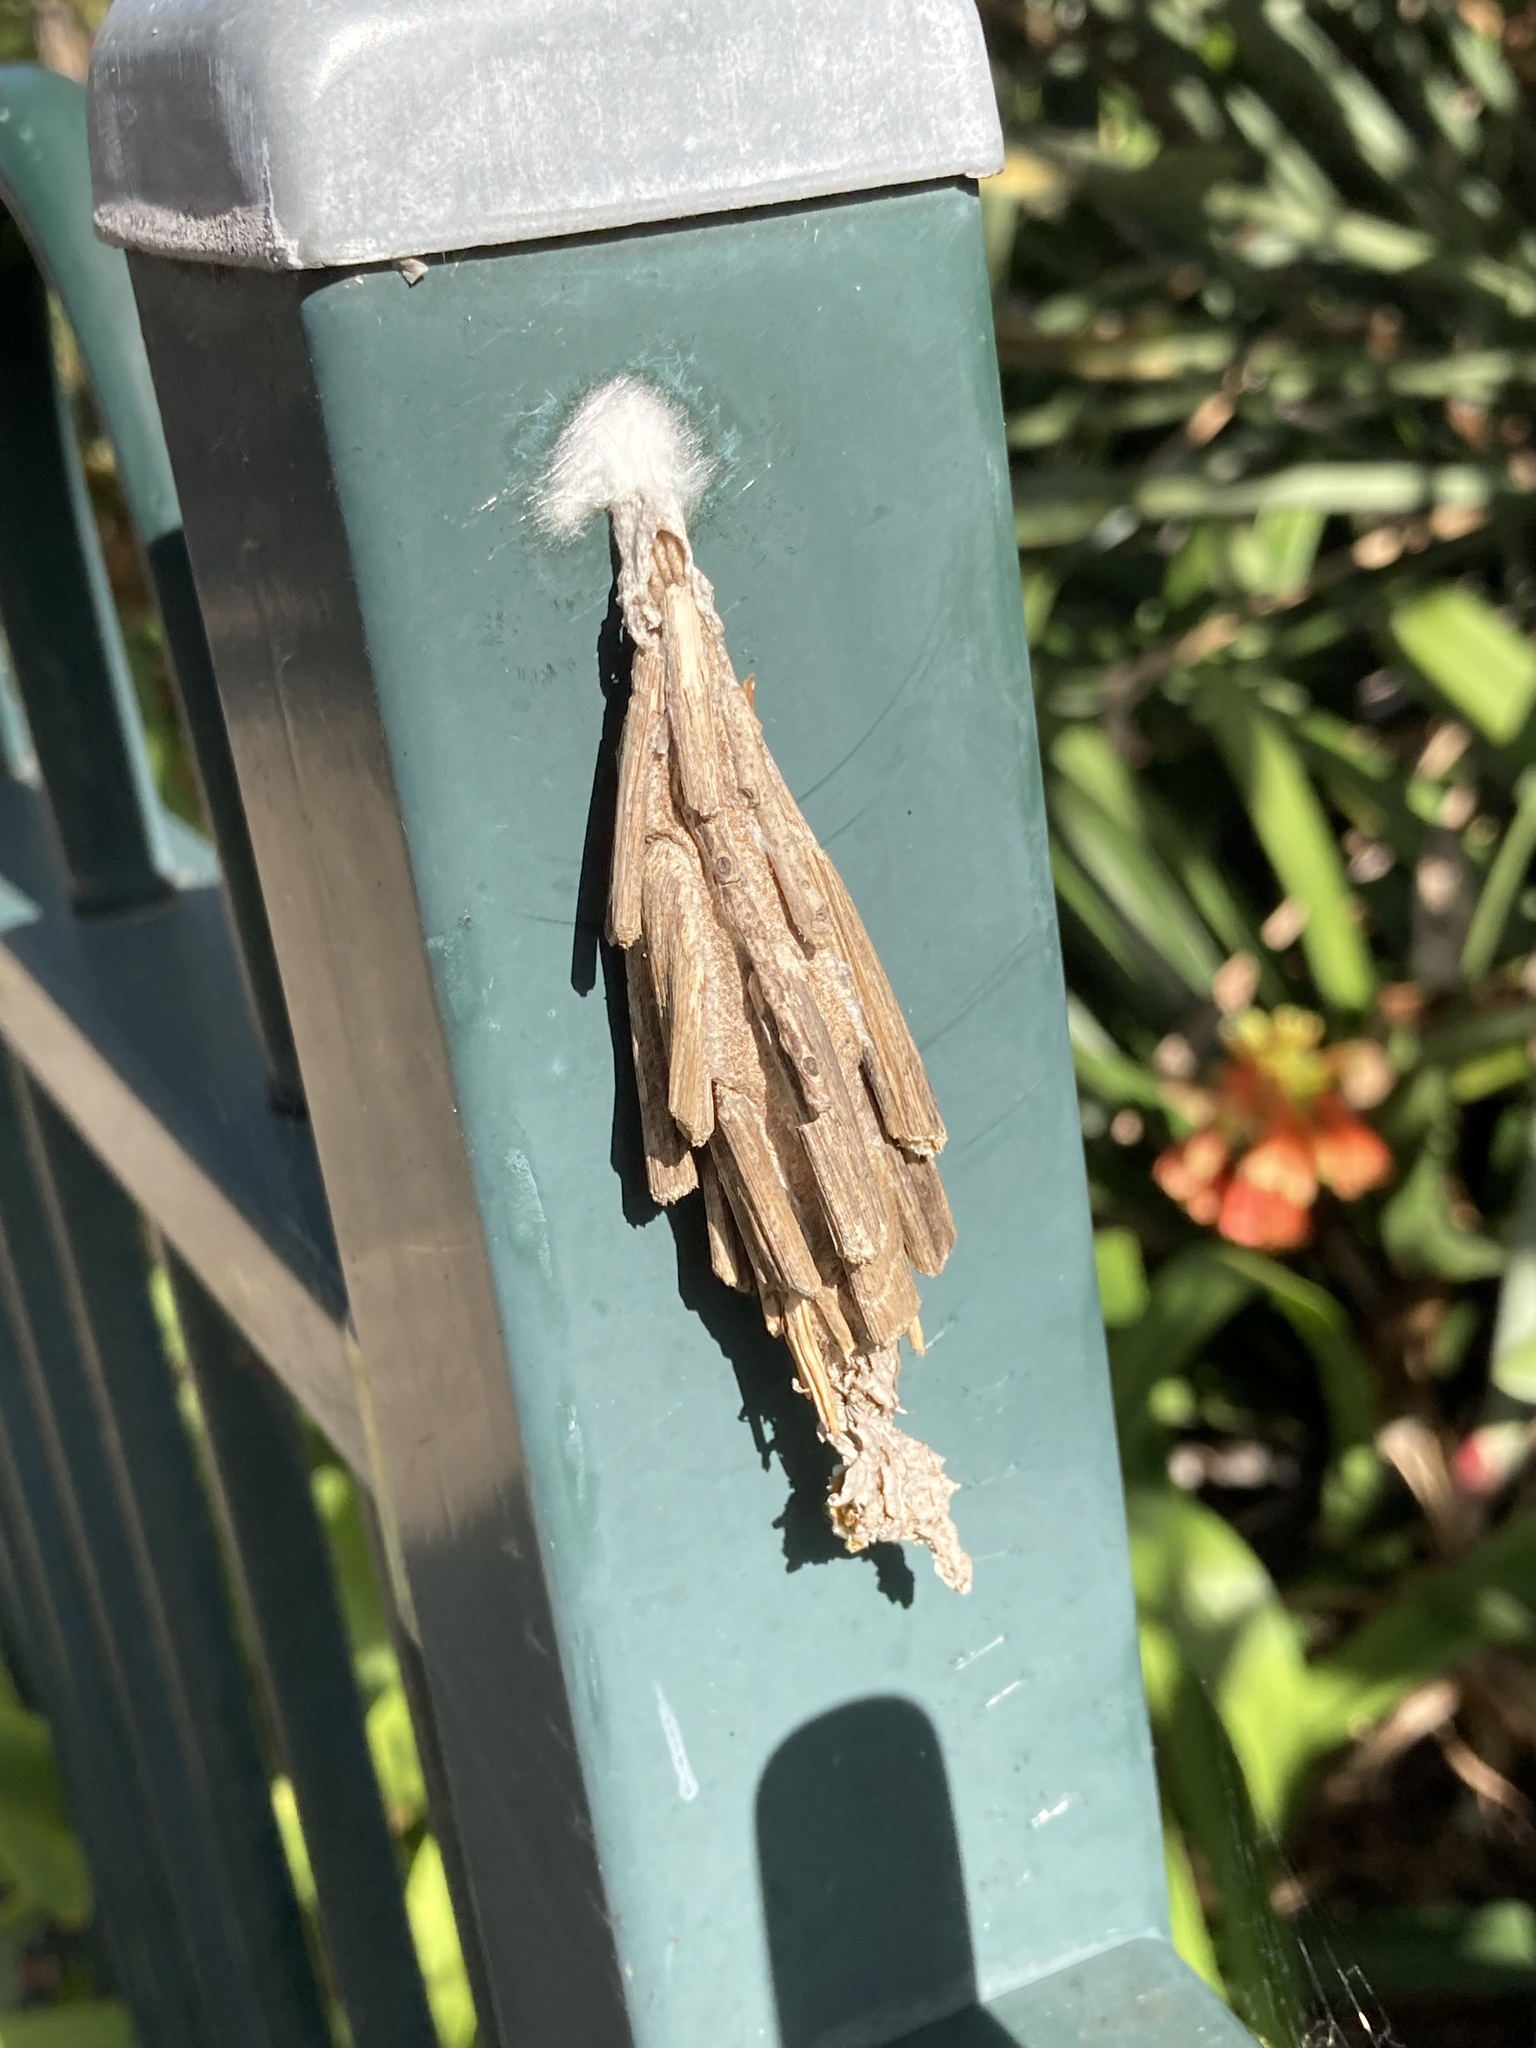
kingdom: Animalia
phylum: Arthropoda
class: Insecta
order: Lepidoptera
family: Psychidae
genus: Metura
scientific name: Metura elongatus
